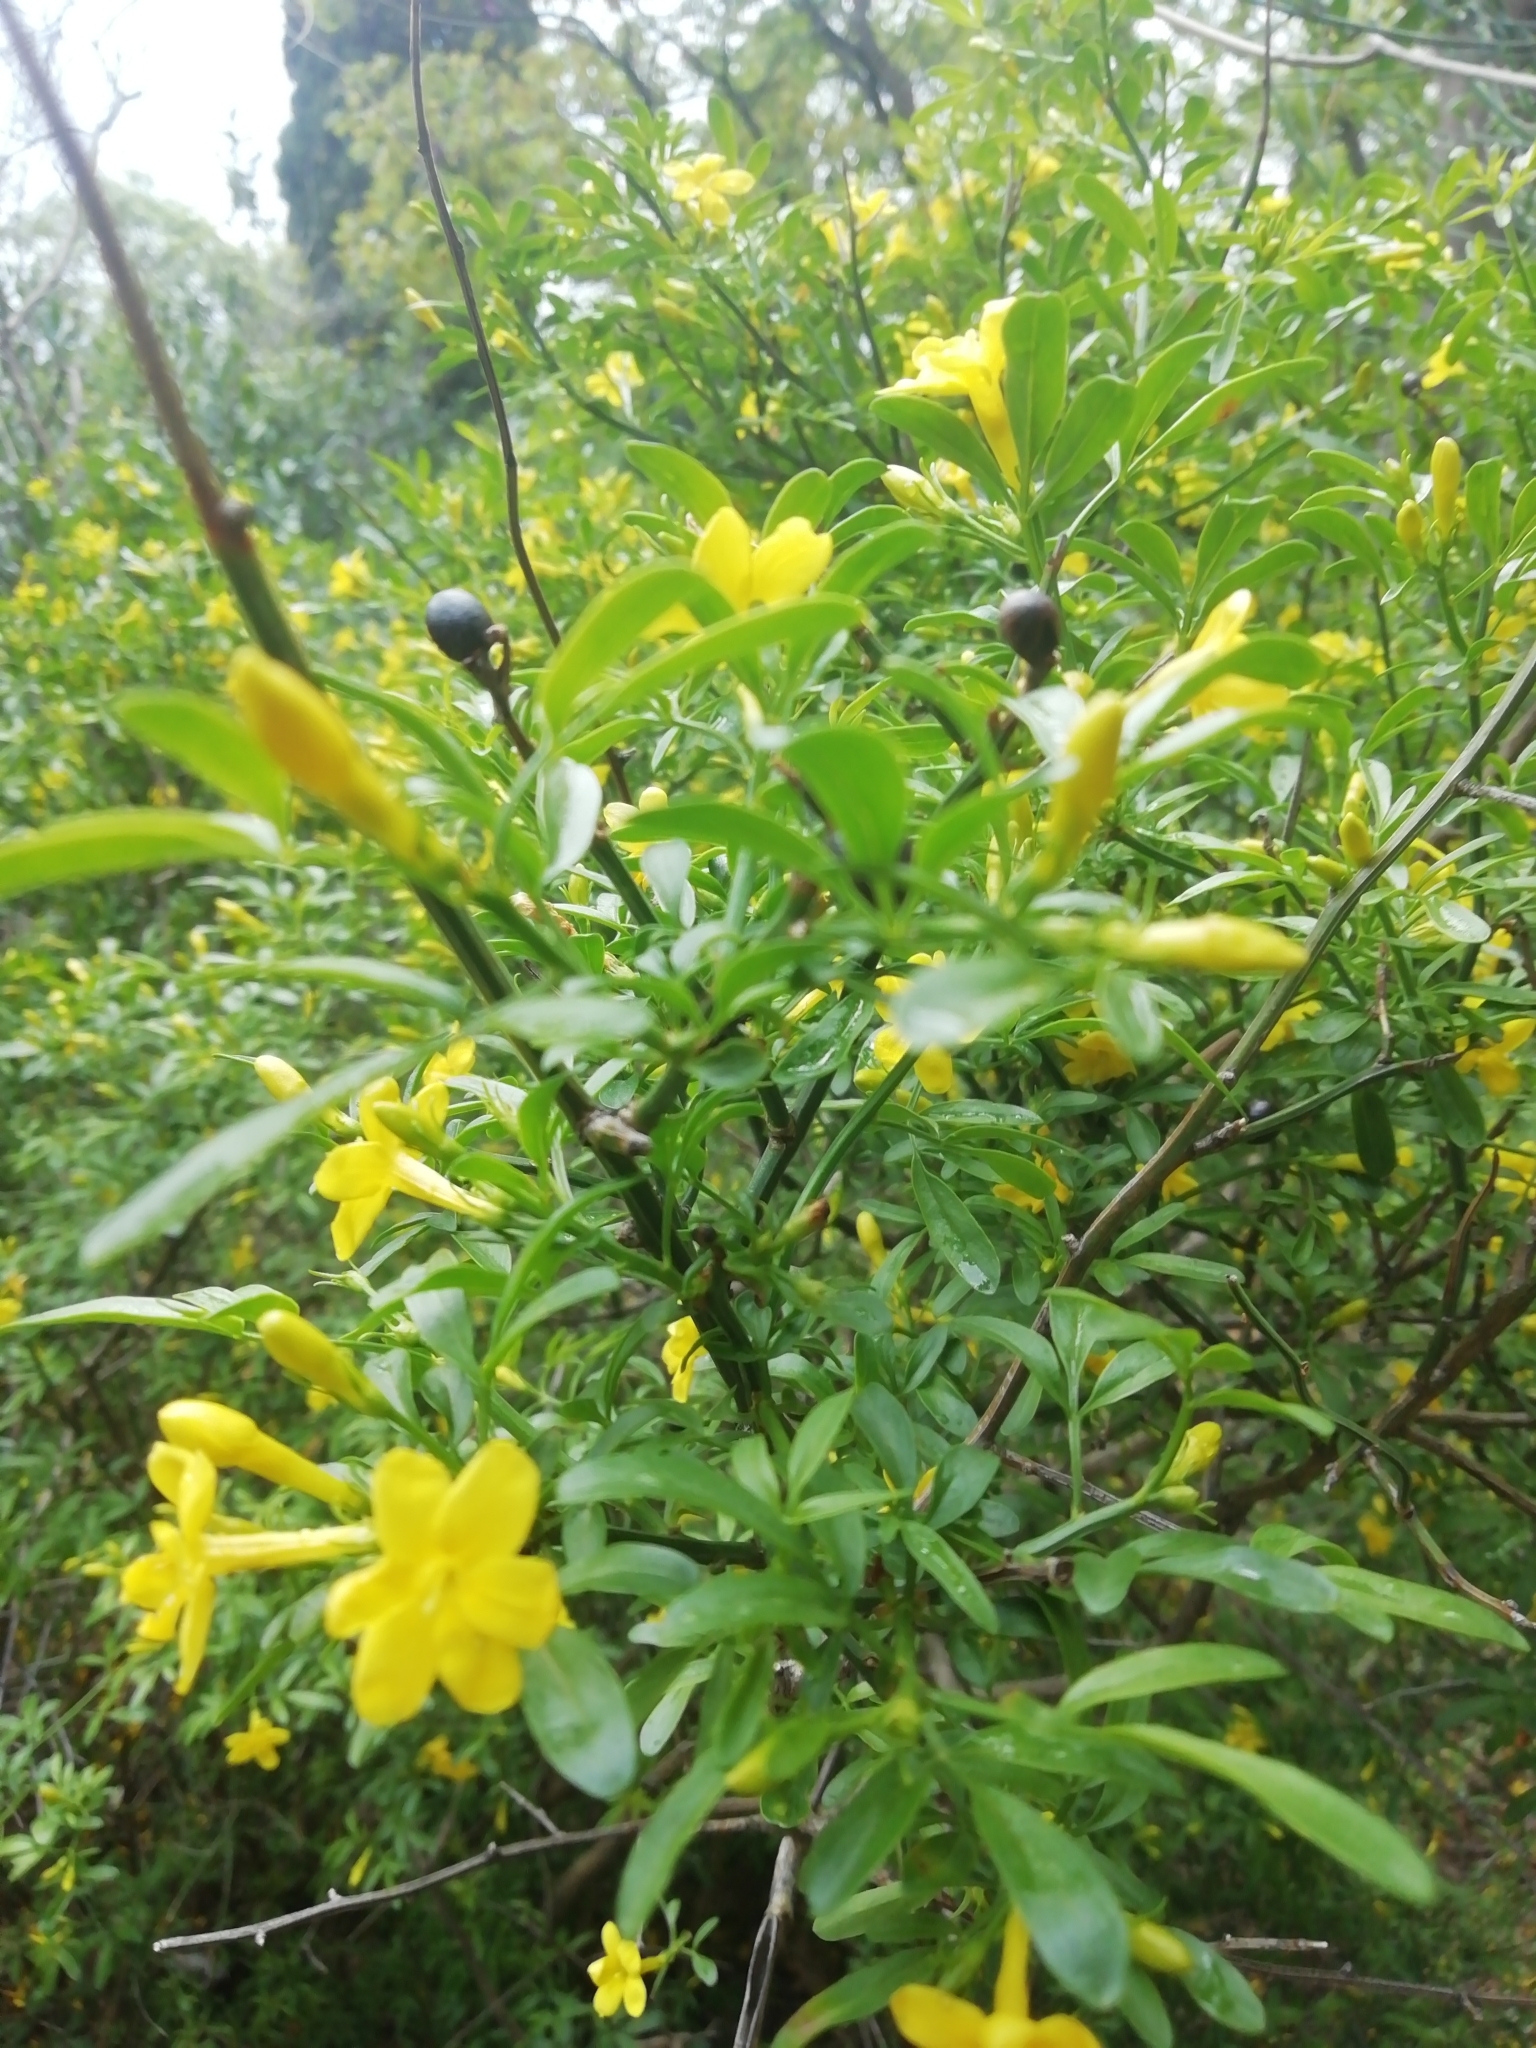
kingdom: Plantae
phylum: Tracheophyta
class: Magnoliopsida
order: Lamiales
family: Oleaceae
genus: Chrysojasminum
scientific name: Chrysojasminum fruticans
